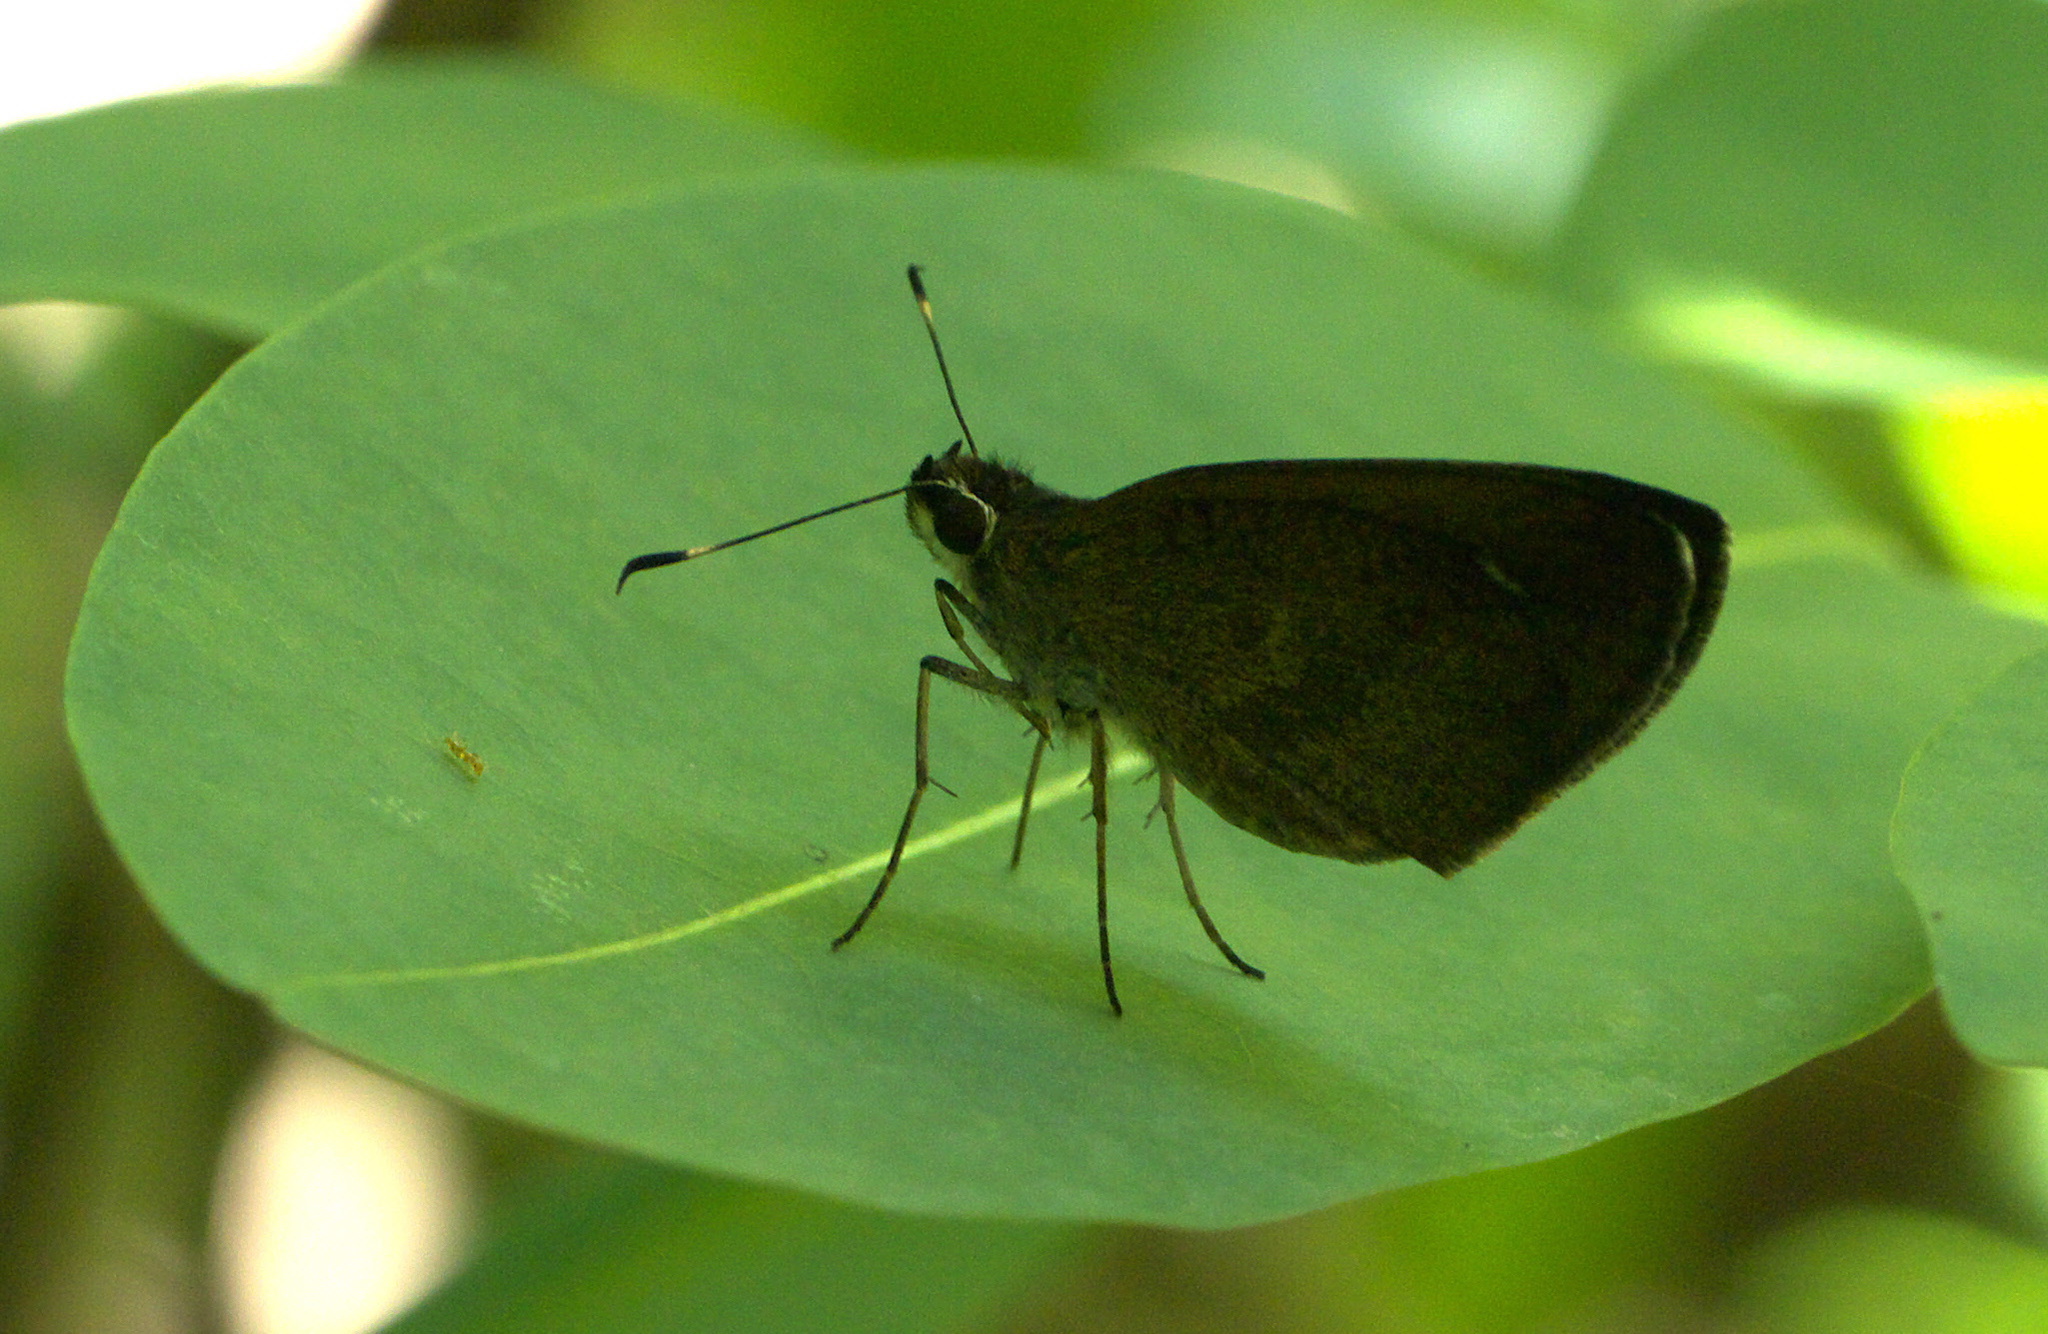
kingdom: Animalia
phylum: Arthropoda
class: Insecta
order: Lepidoptera
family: Hesperiidae
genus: Synapte
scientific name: Synapte malitiosa
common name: Caribbean faceted-skipper
